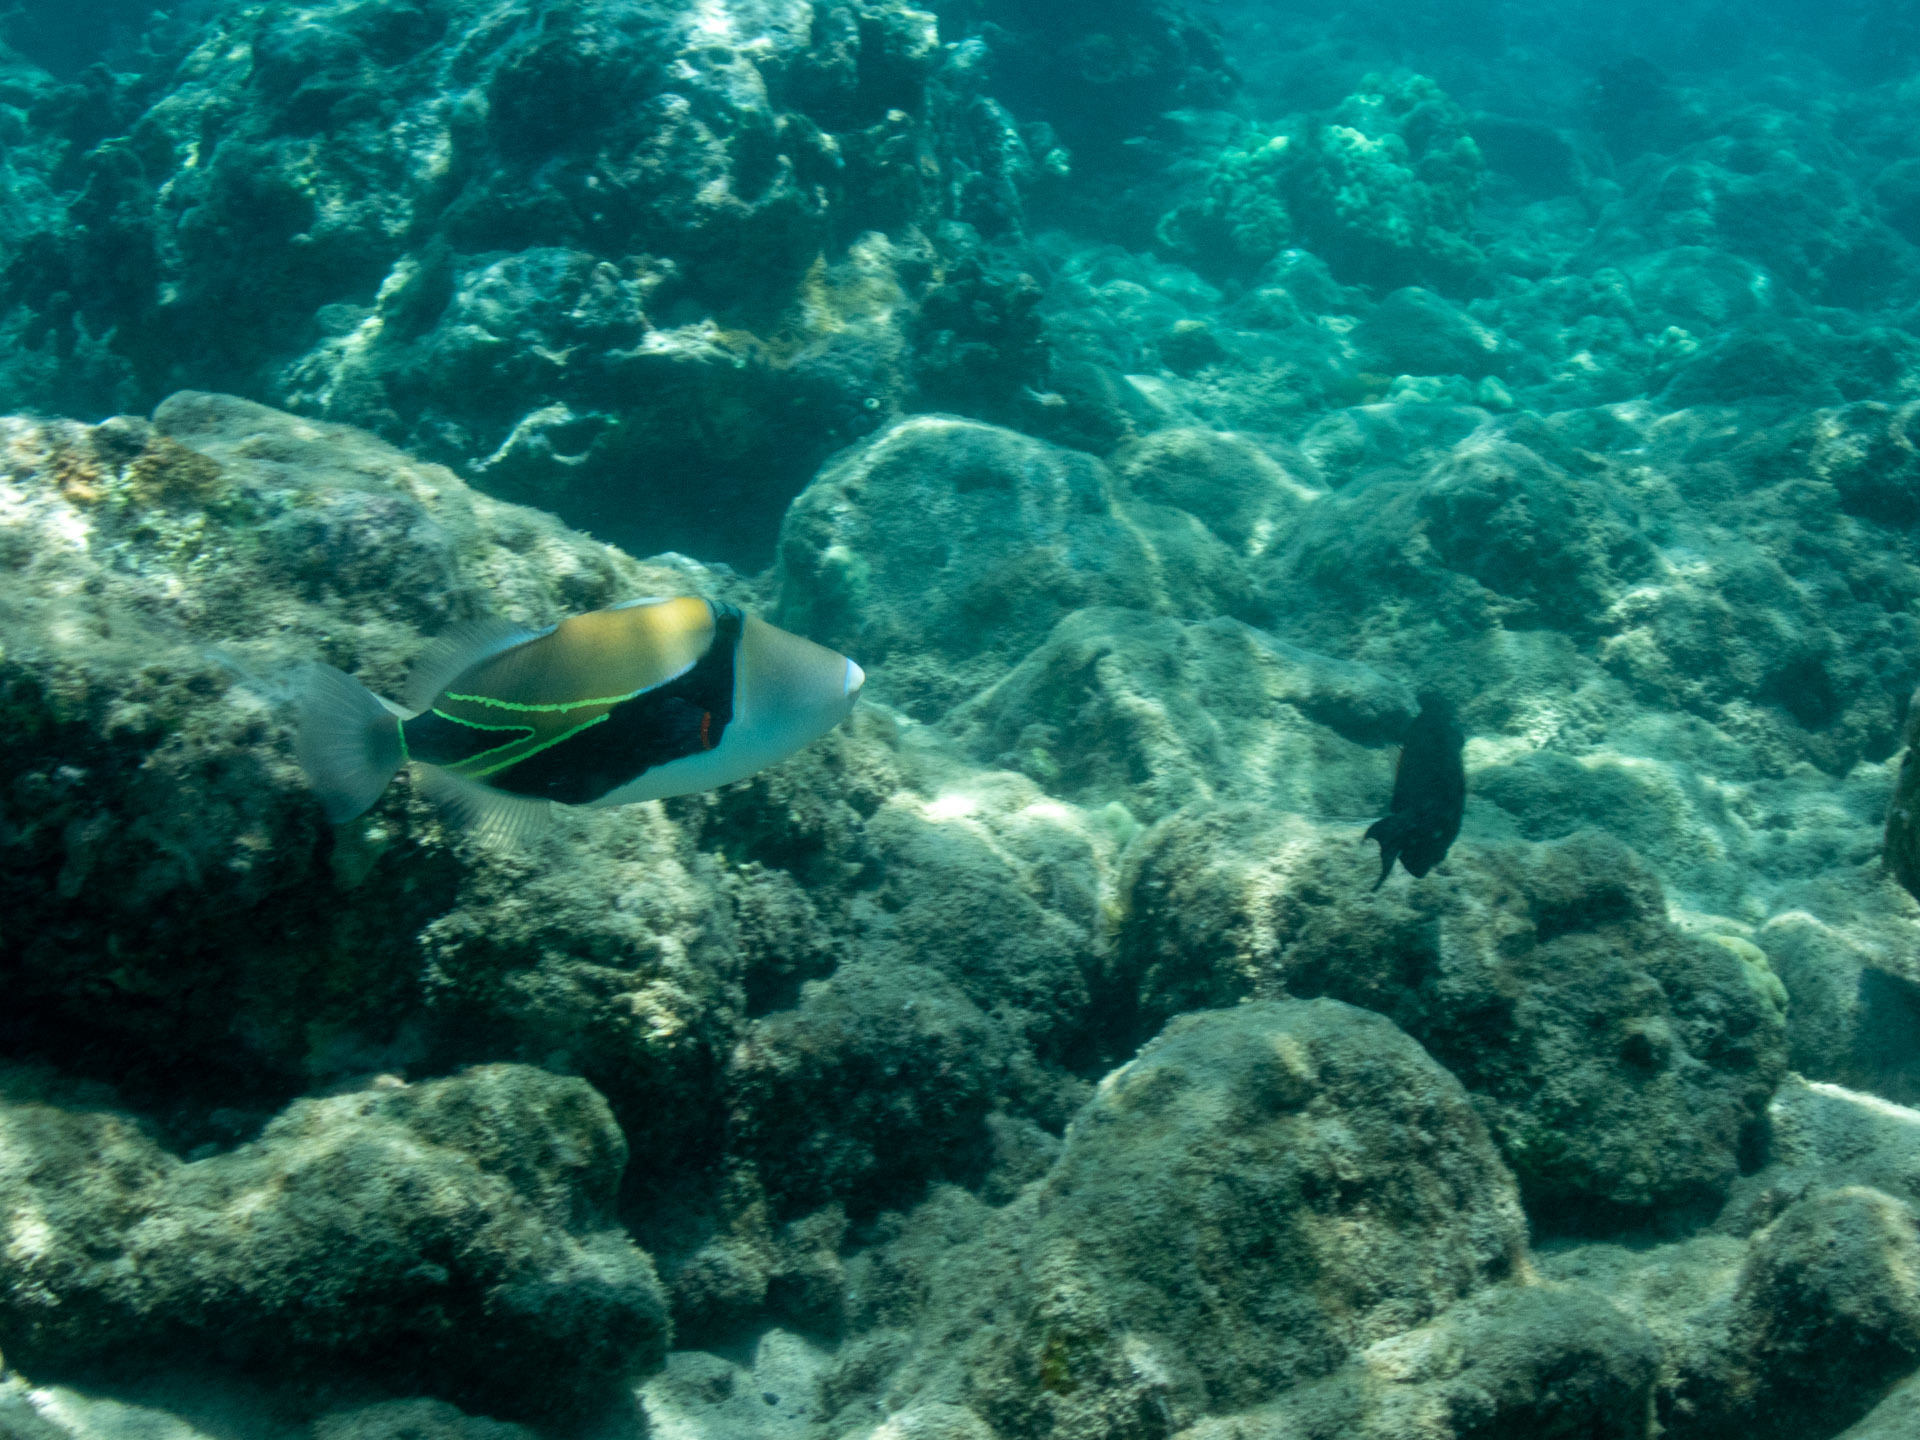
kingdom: Animalia
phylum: Chordata
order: Tetraodontiformes
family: Balistidae
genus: Rhinecanthus
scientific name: Rhinecanthus rectangulus
